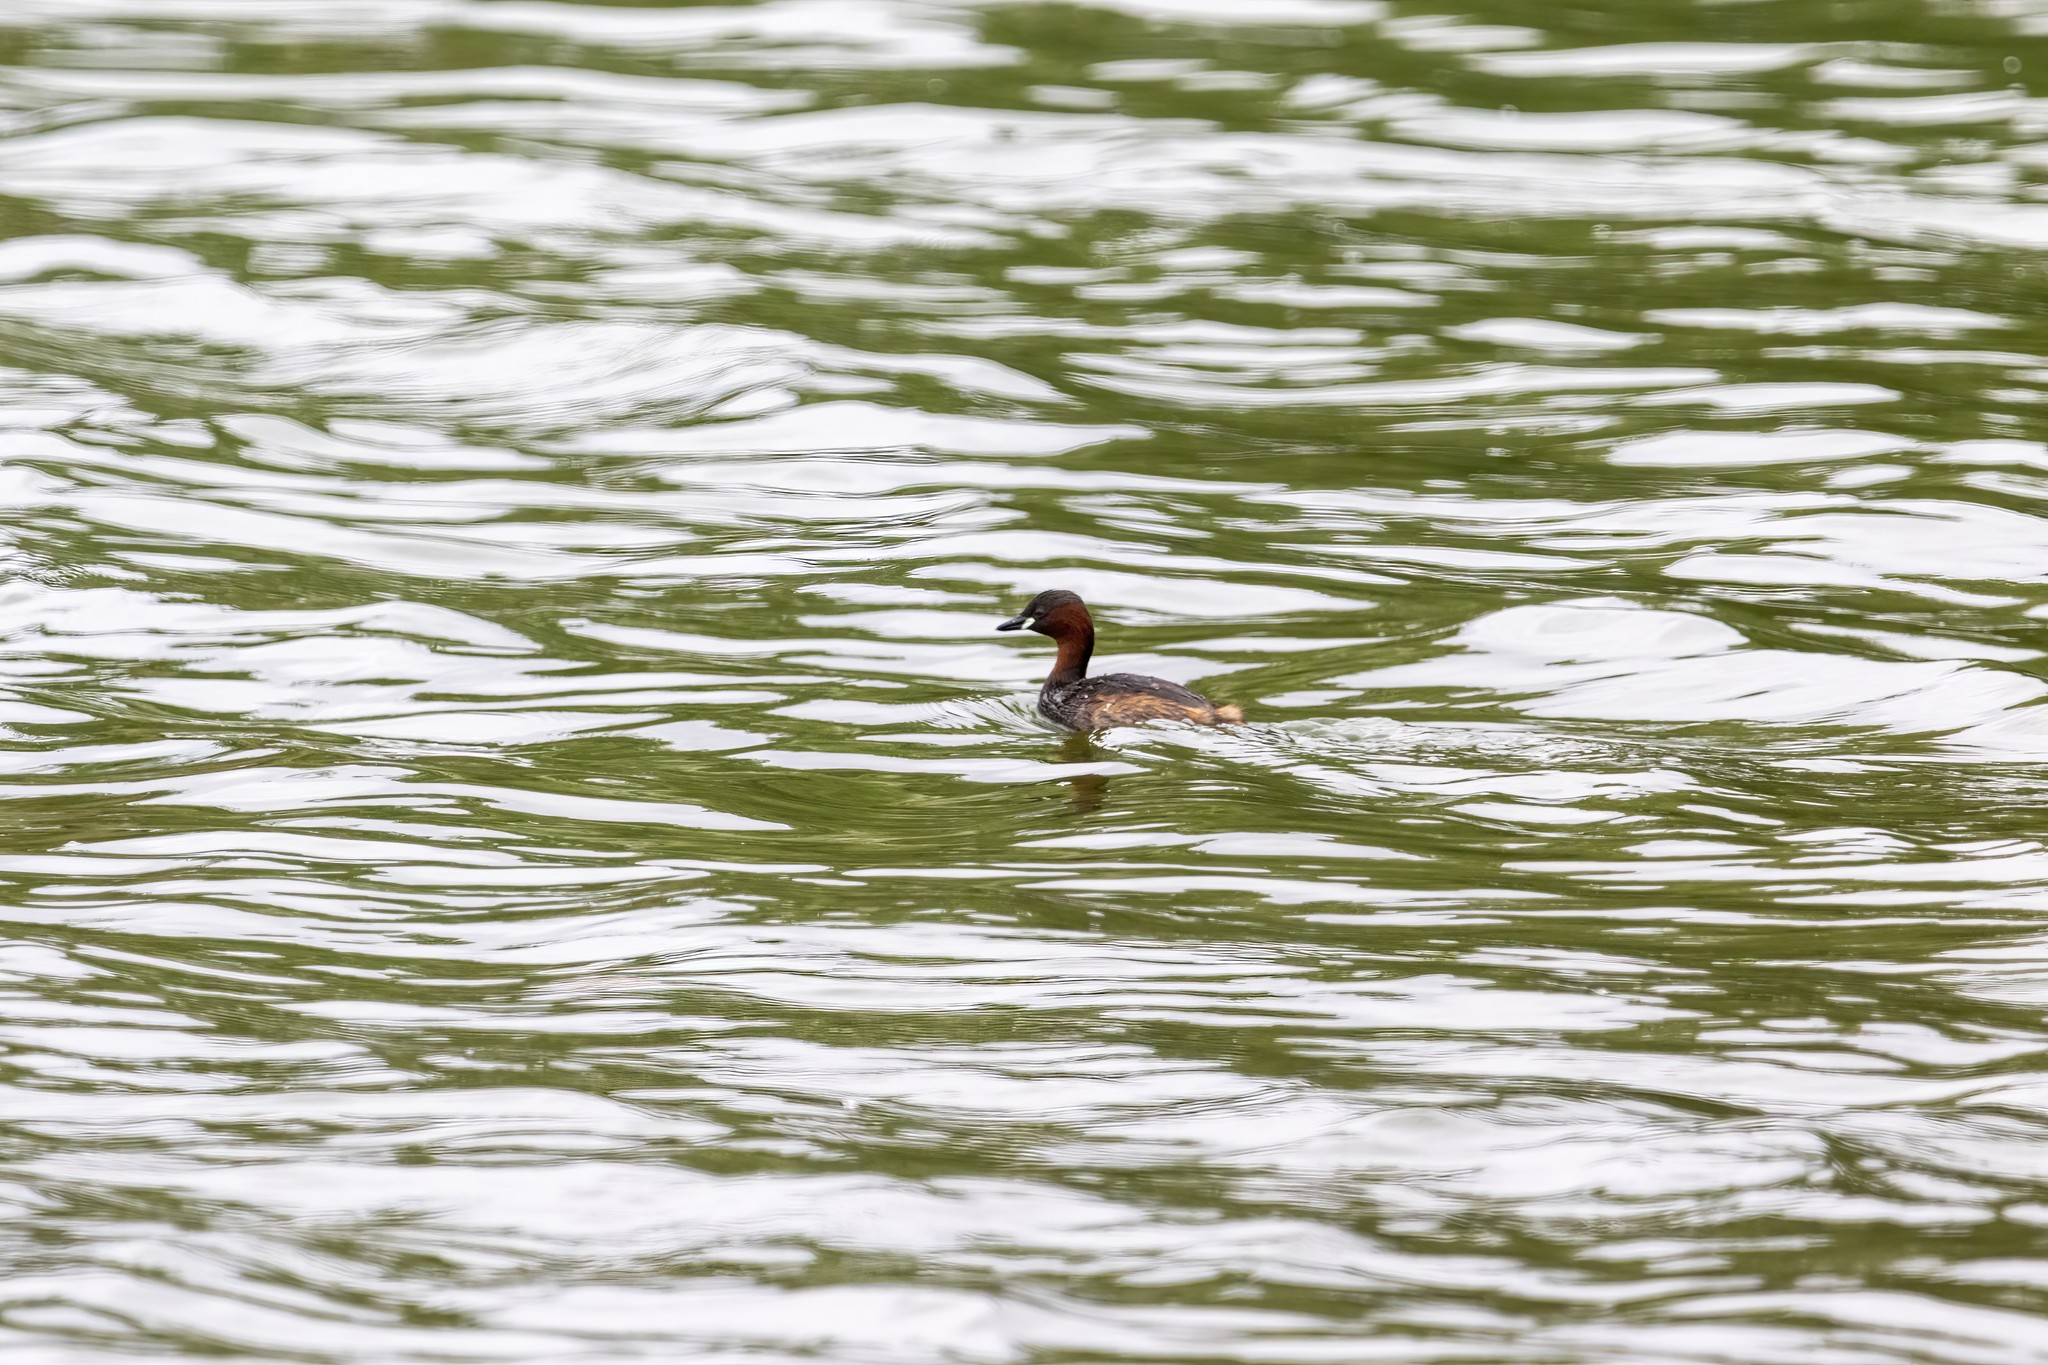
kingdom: Animalia
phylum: Chordata
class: Aves
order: Podicipediformes
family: Podicipedidae
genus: Tachybaptus
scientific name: Tachybaptus ruficollis
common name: Little grebe
